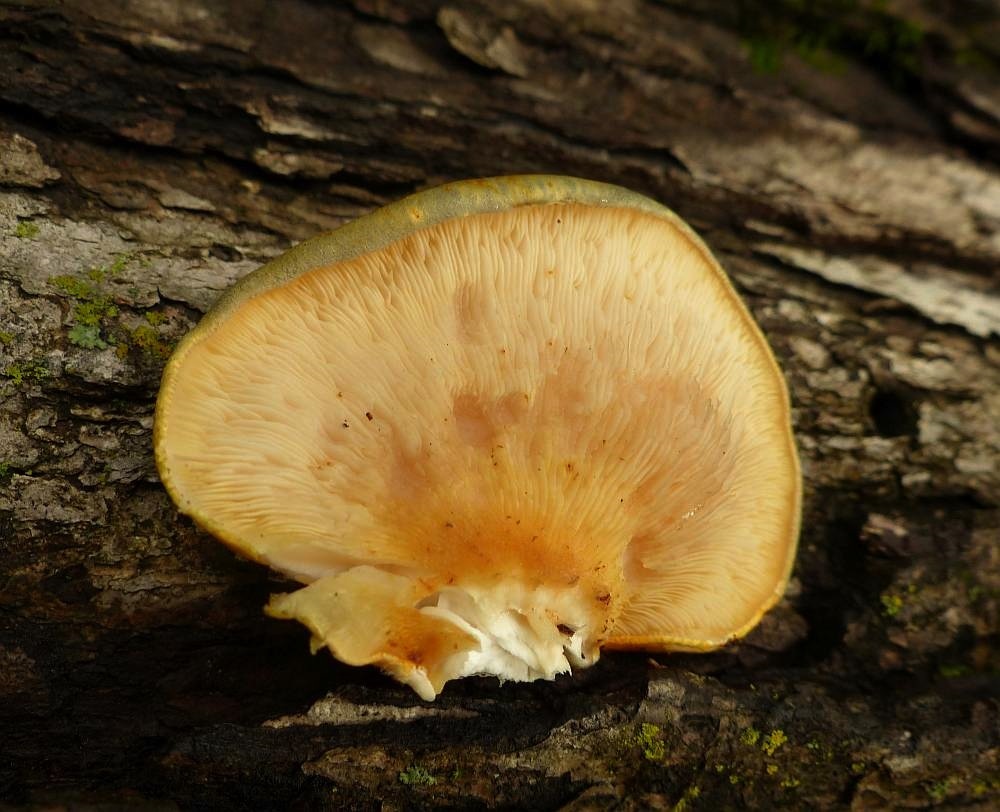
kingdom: Fungi
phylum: Basidiomycota
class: Agaricomycetes
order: Agaricales
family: Sarcomyxaceae
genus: Sarcomyxa
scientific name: Sarcomyxa serotina
